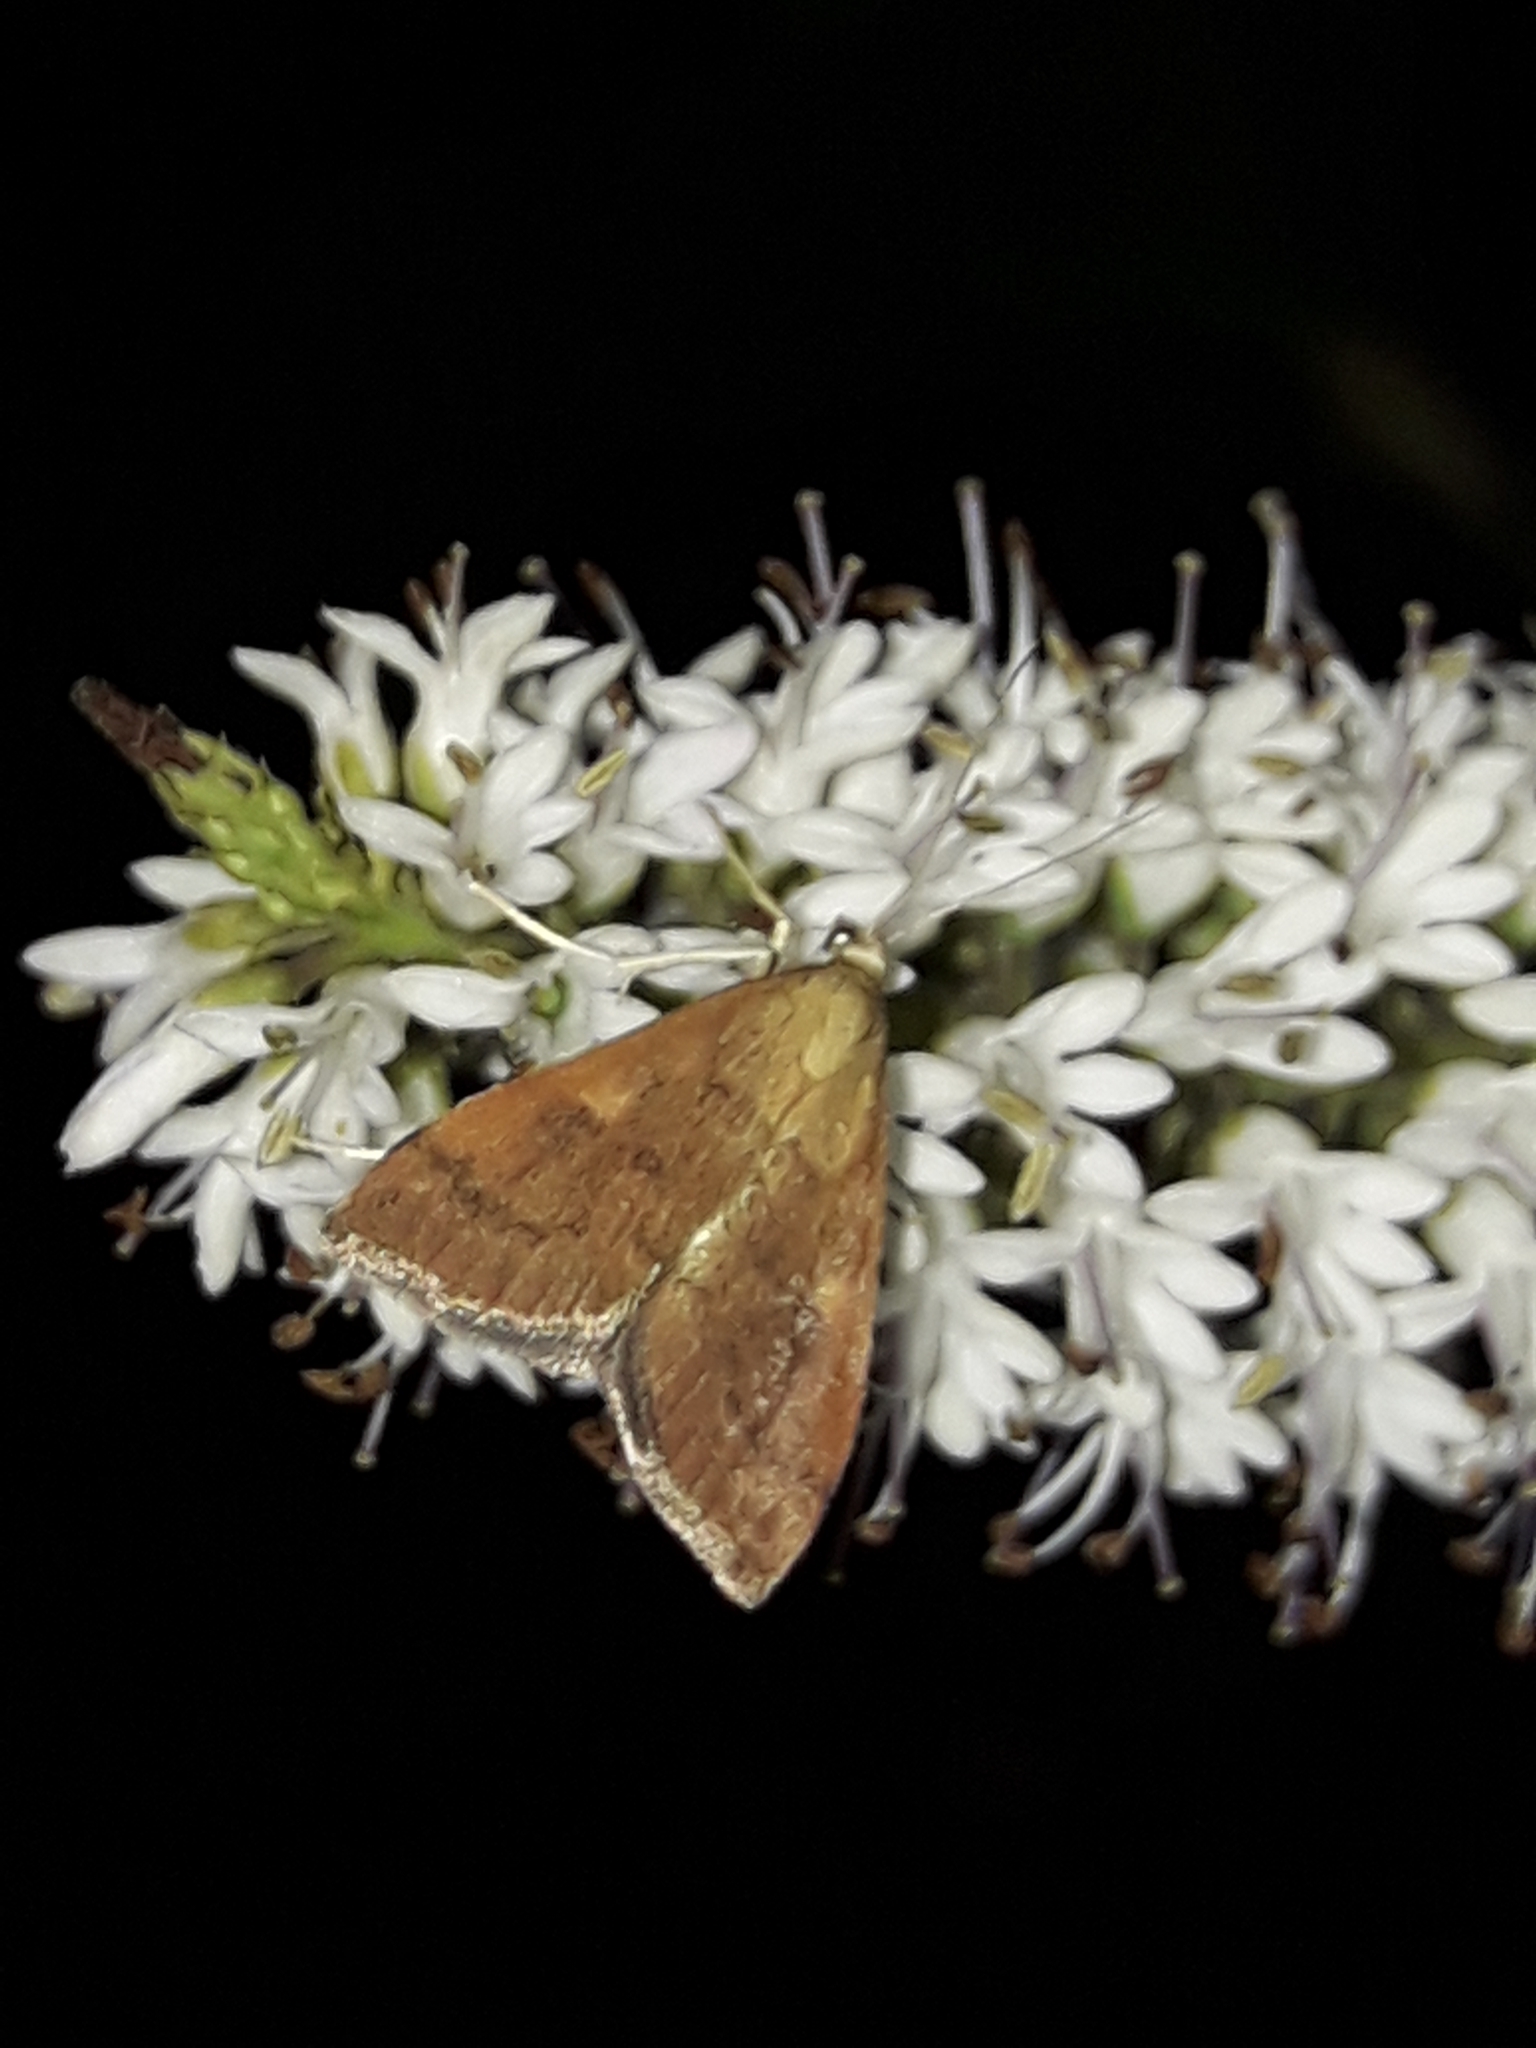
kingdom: Animalia
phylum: Arthropoda
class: Insecta
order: Lepidoptera
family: Crambidae
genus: Udea
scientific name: Udea Mnesictena flavidalis
